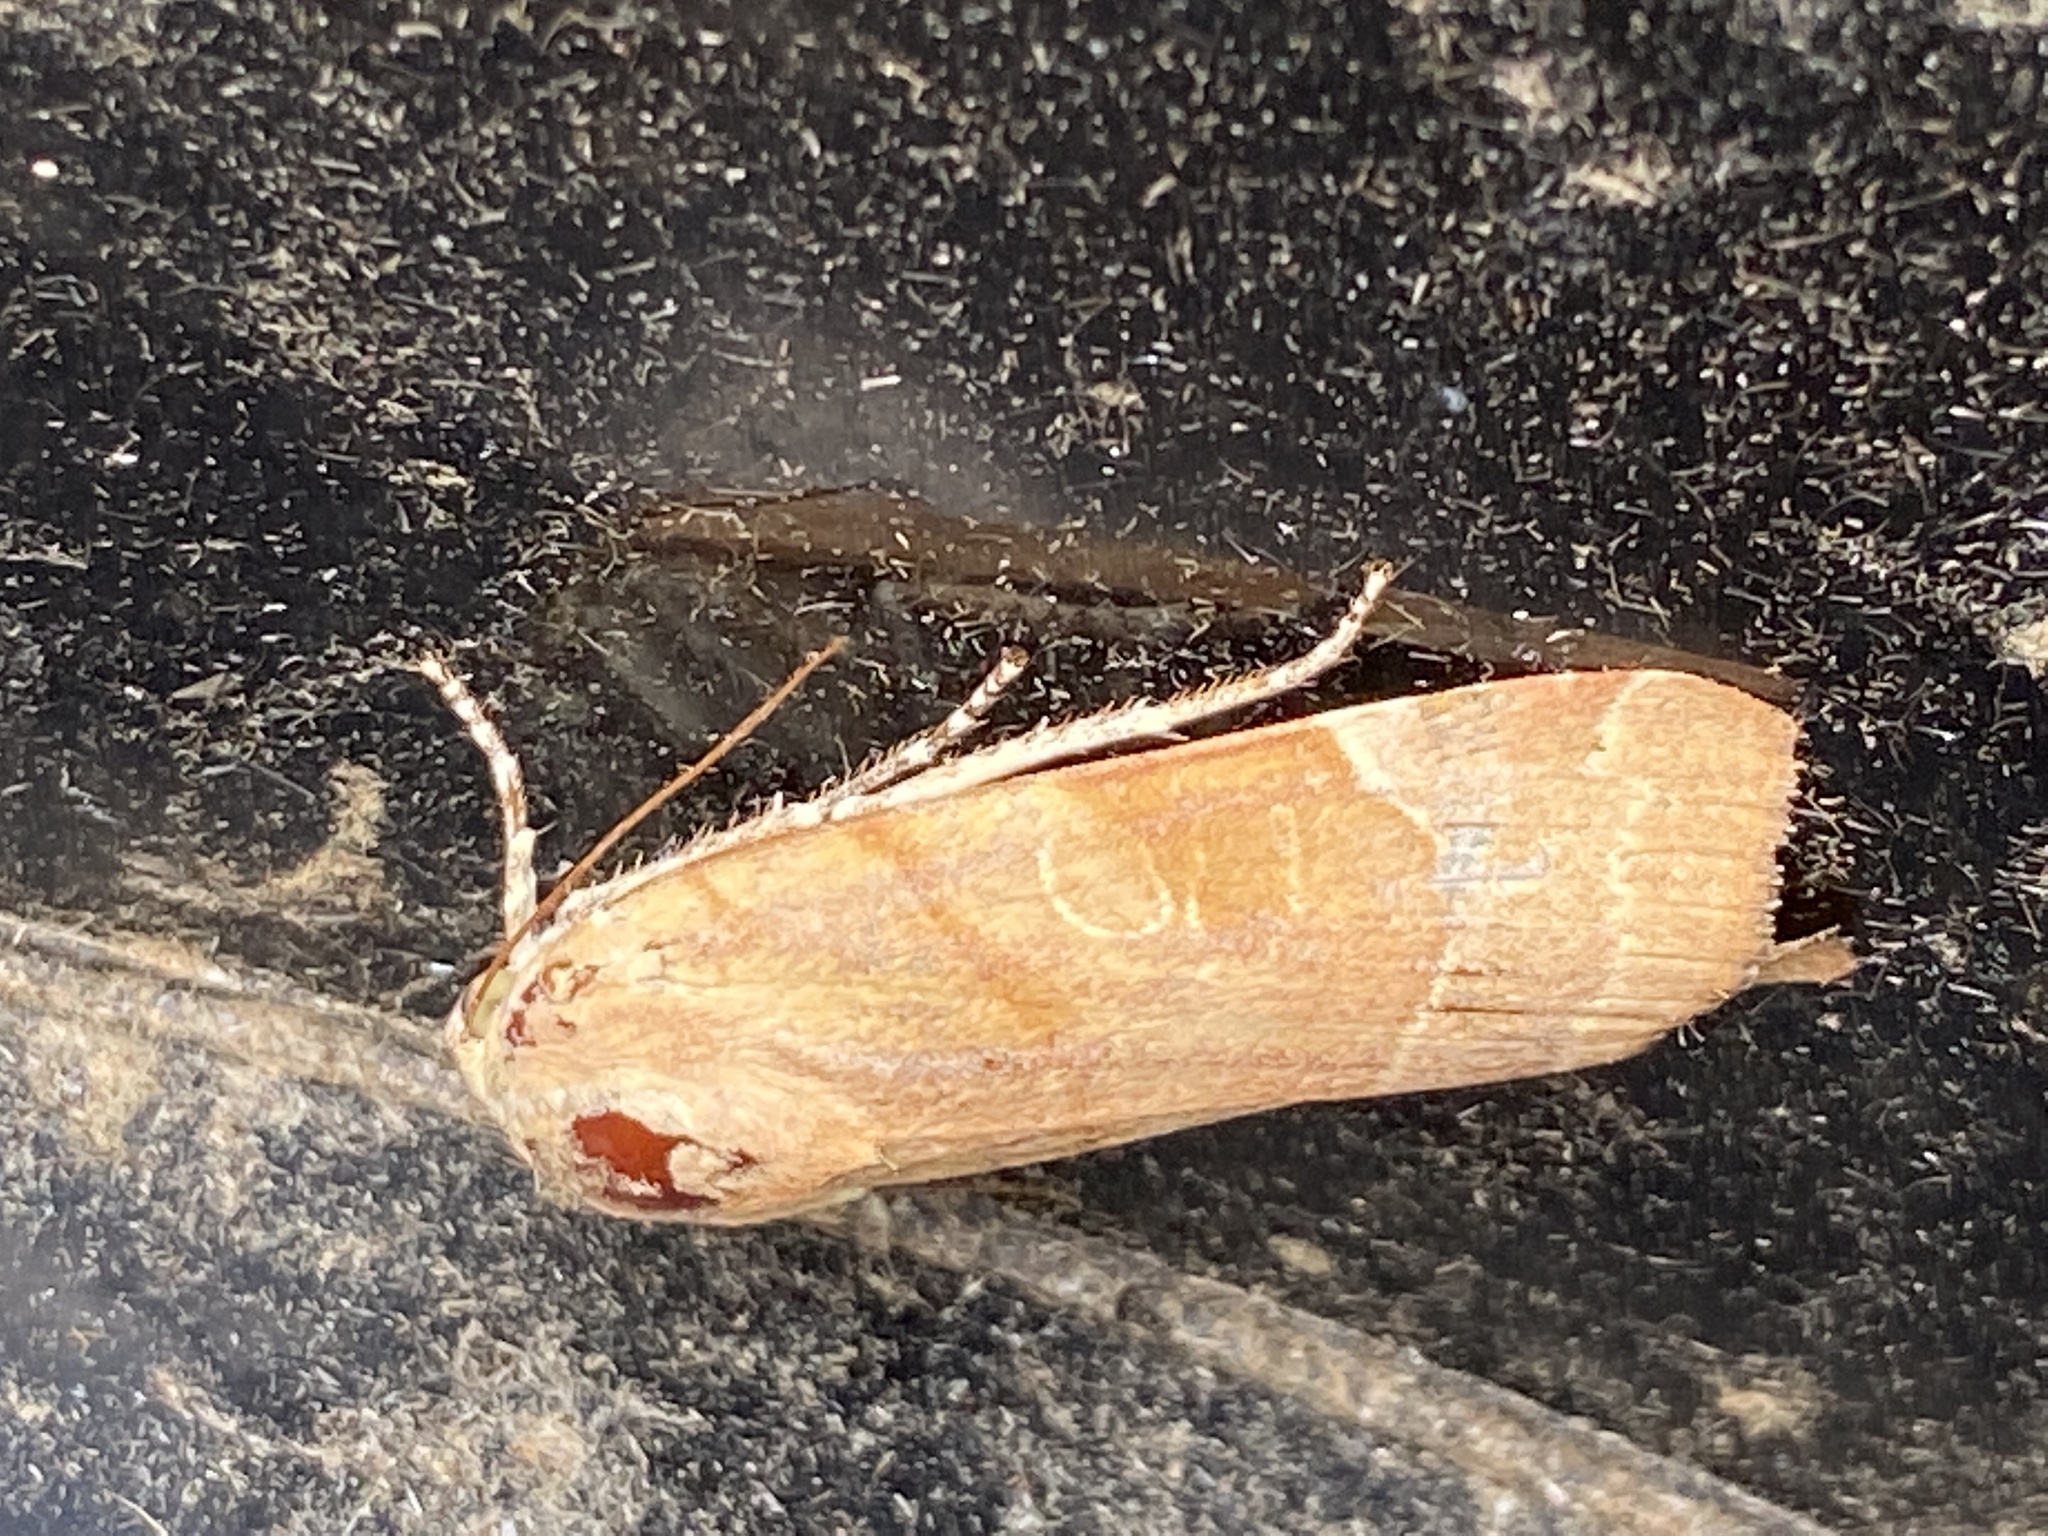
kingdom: Animalia
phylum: Arthropoda
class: Insecta
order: Lepidoptera
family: Noctuidae
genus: Noctua
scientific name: Noctua fimbriata
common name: Broad-bordered yellow underwing
